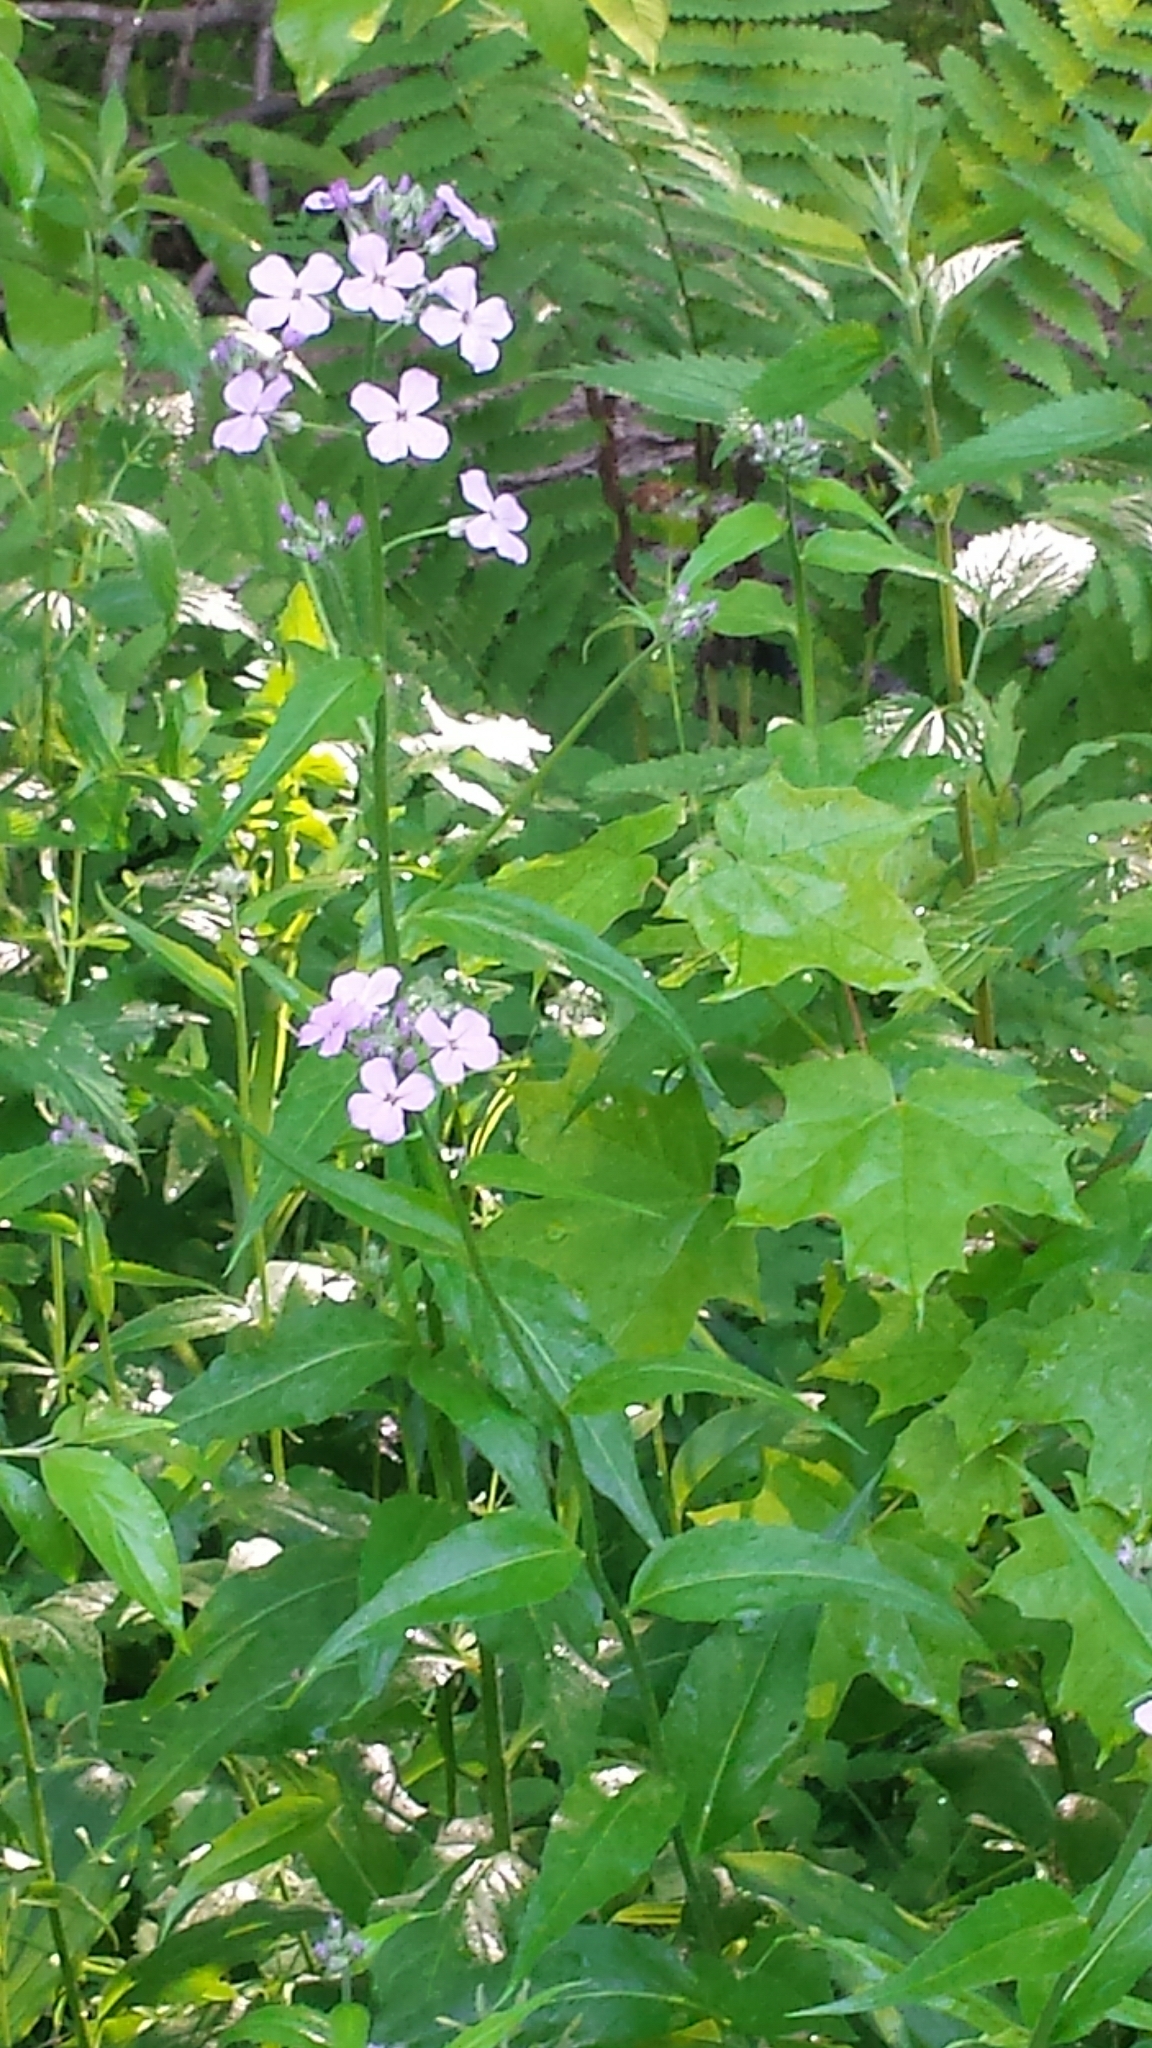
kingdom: Plantae
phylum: Tracheophyta
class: Magnoliopsida
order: Brassicales
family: Brassicaceae
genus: Hesperis
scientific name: Hesperis matronalis
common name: Dame's-violet
